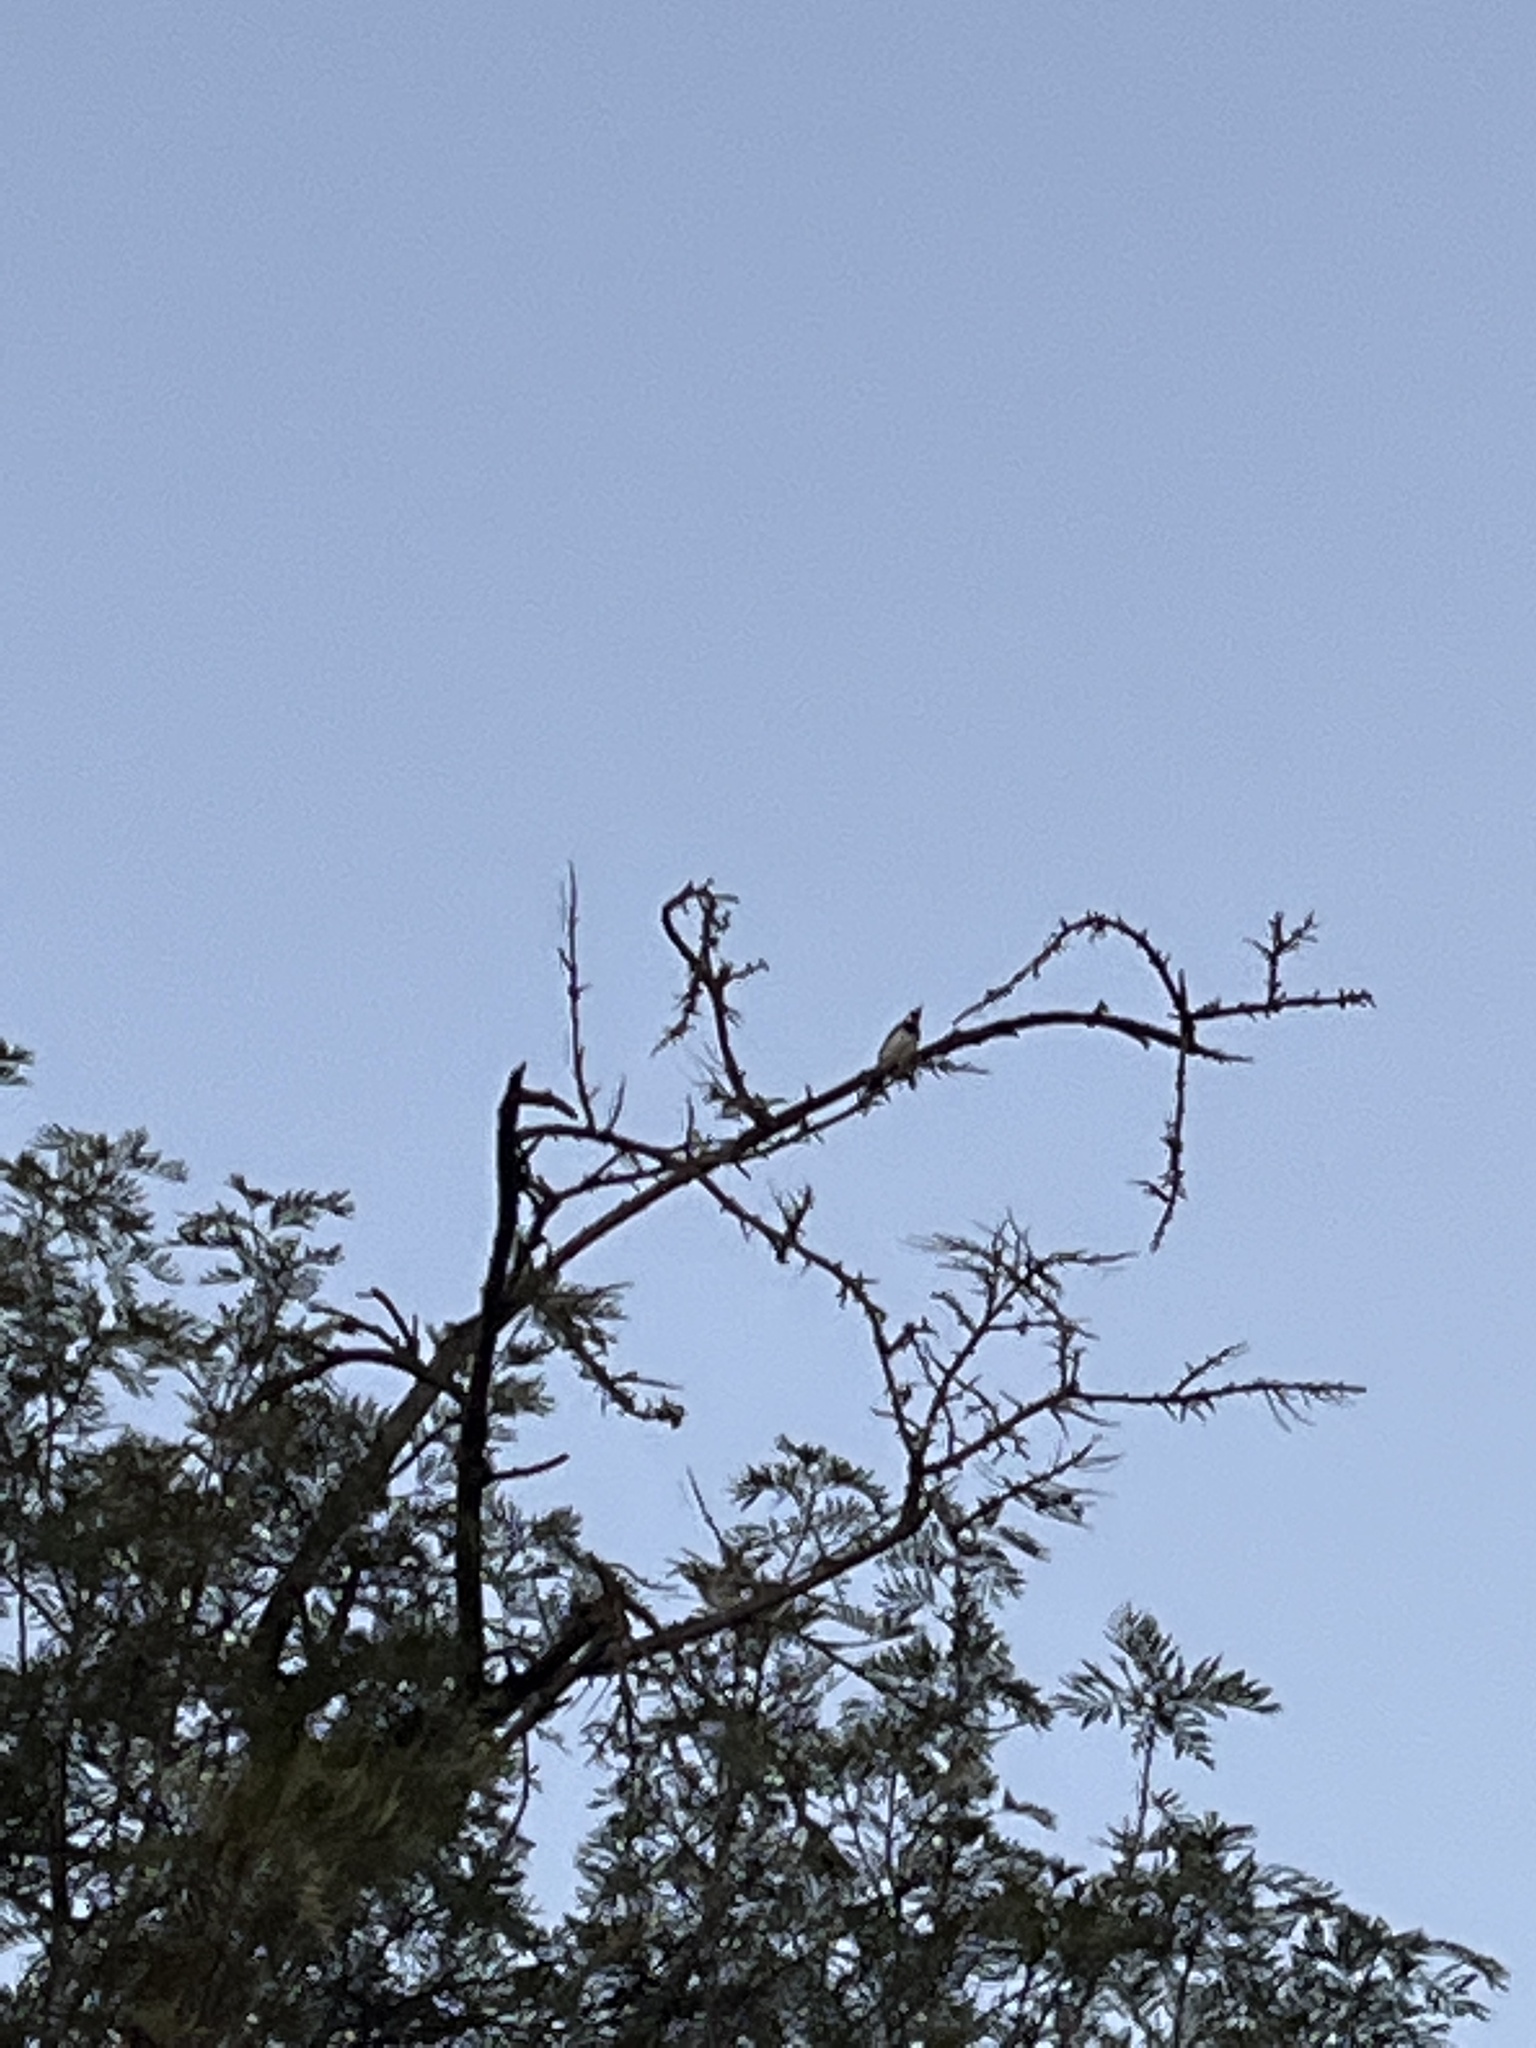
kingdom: Animalia
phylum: Chordata
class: Aves
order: Piciformes
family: Picidae
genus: Melanerpes
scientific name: Melanerpes formicivorus
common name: Acorn woodpecker
